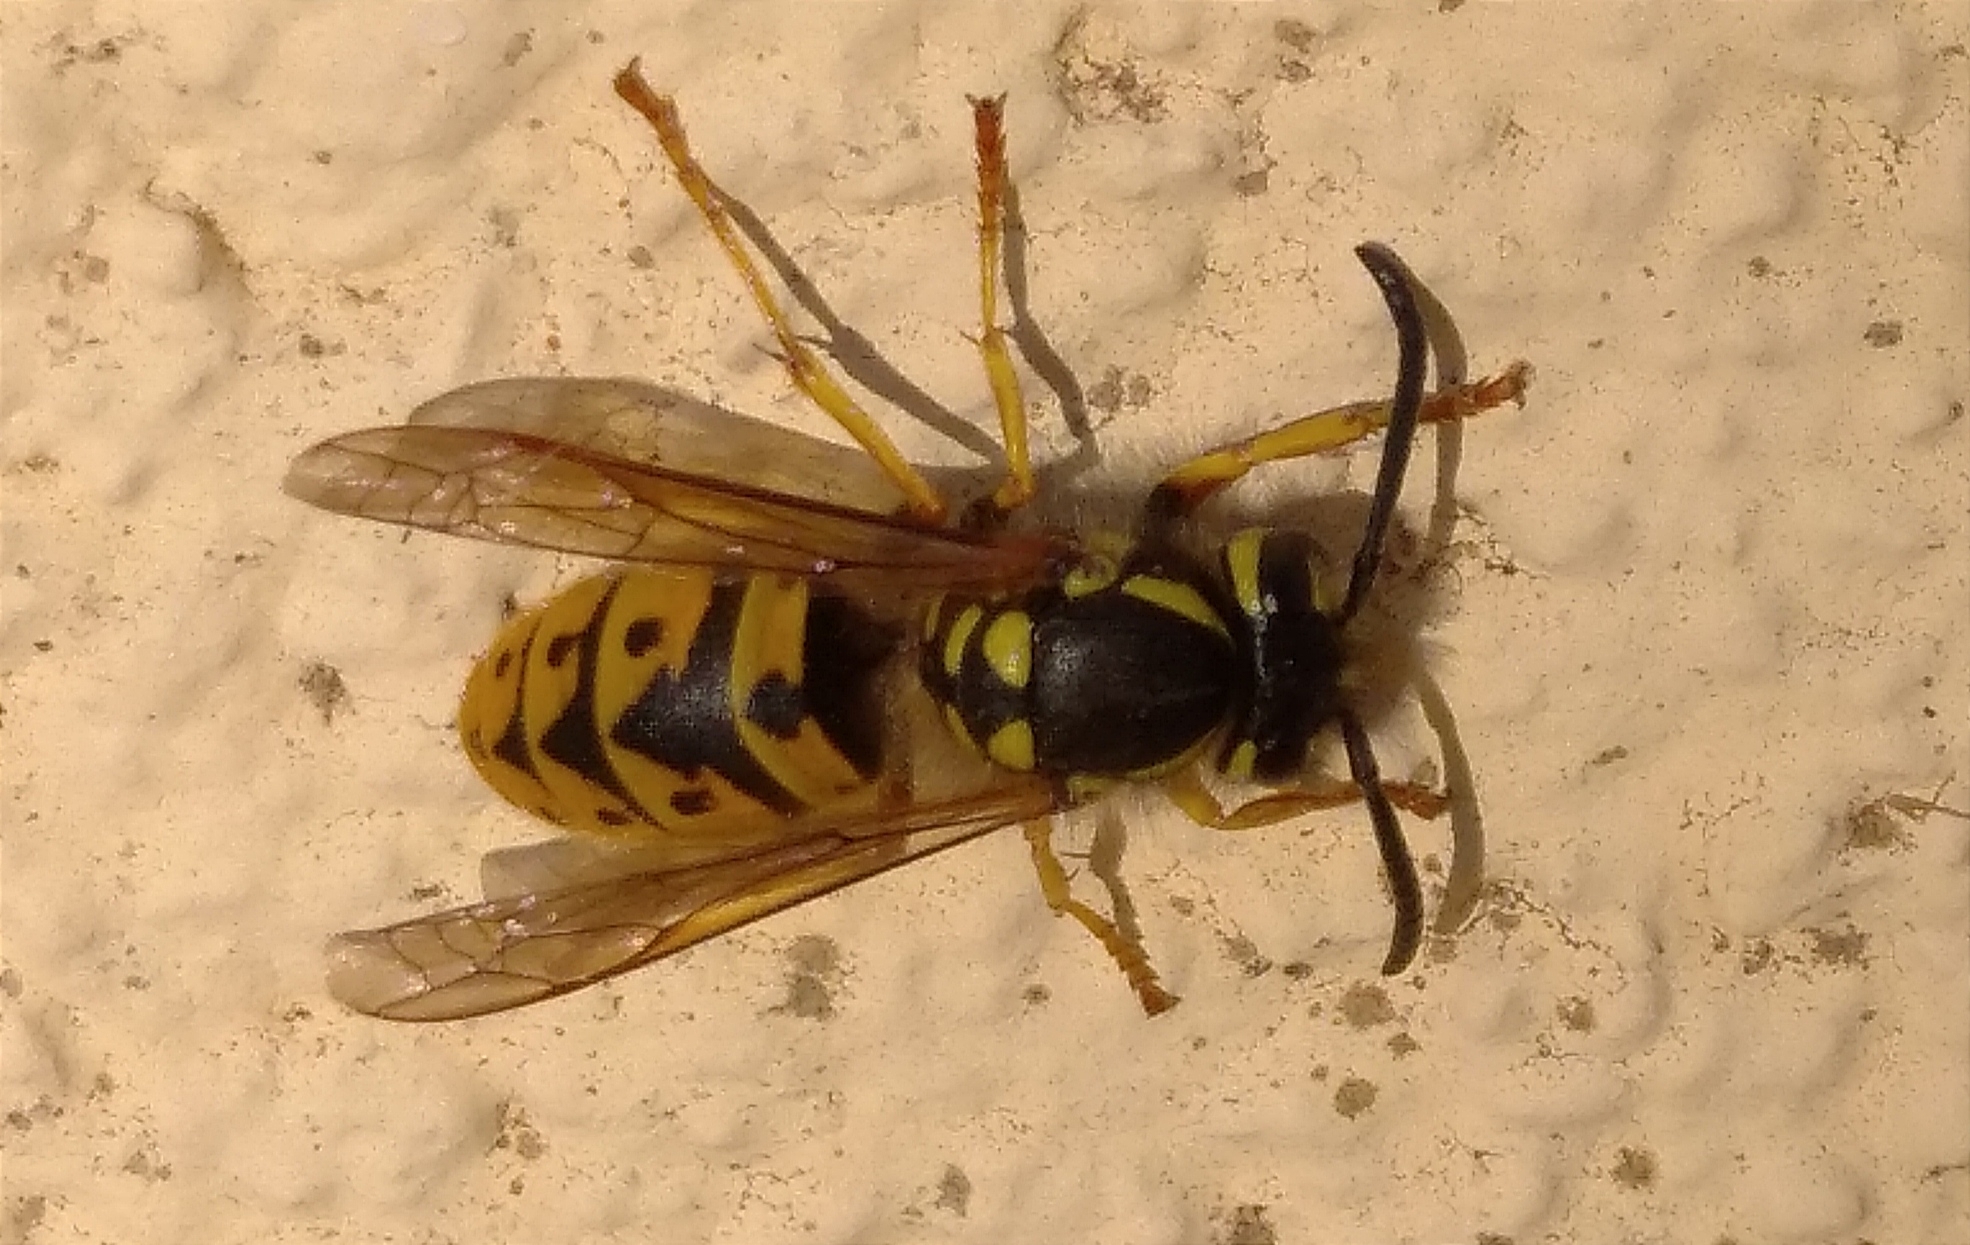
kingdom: Animalia
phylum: Arthropoda
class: Insecta
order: Hymenoptera
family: Vespidae
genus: Vespula
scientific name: Vespula germanica
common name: German wasp
